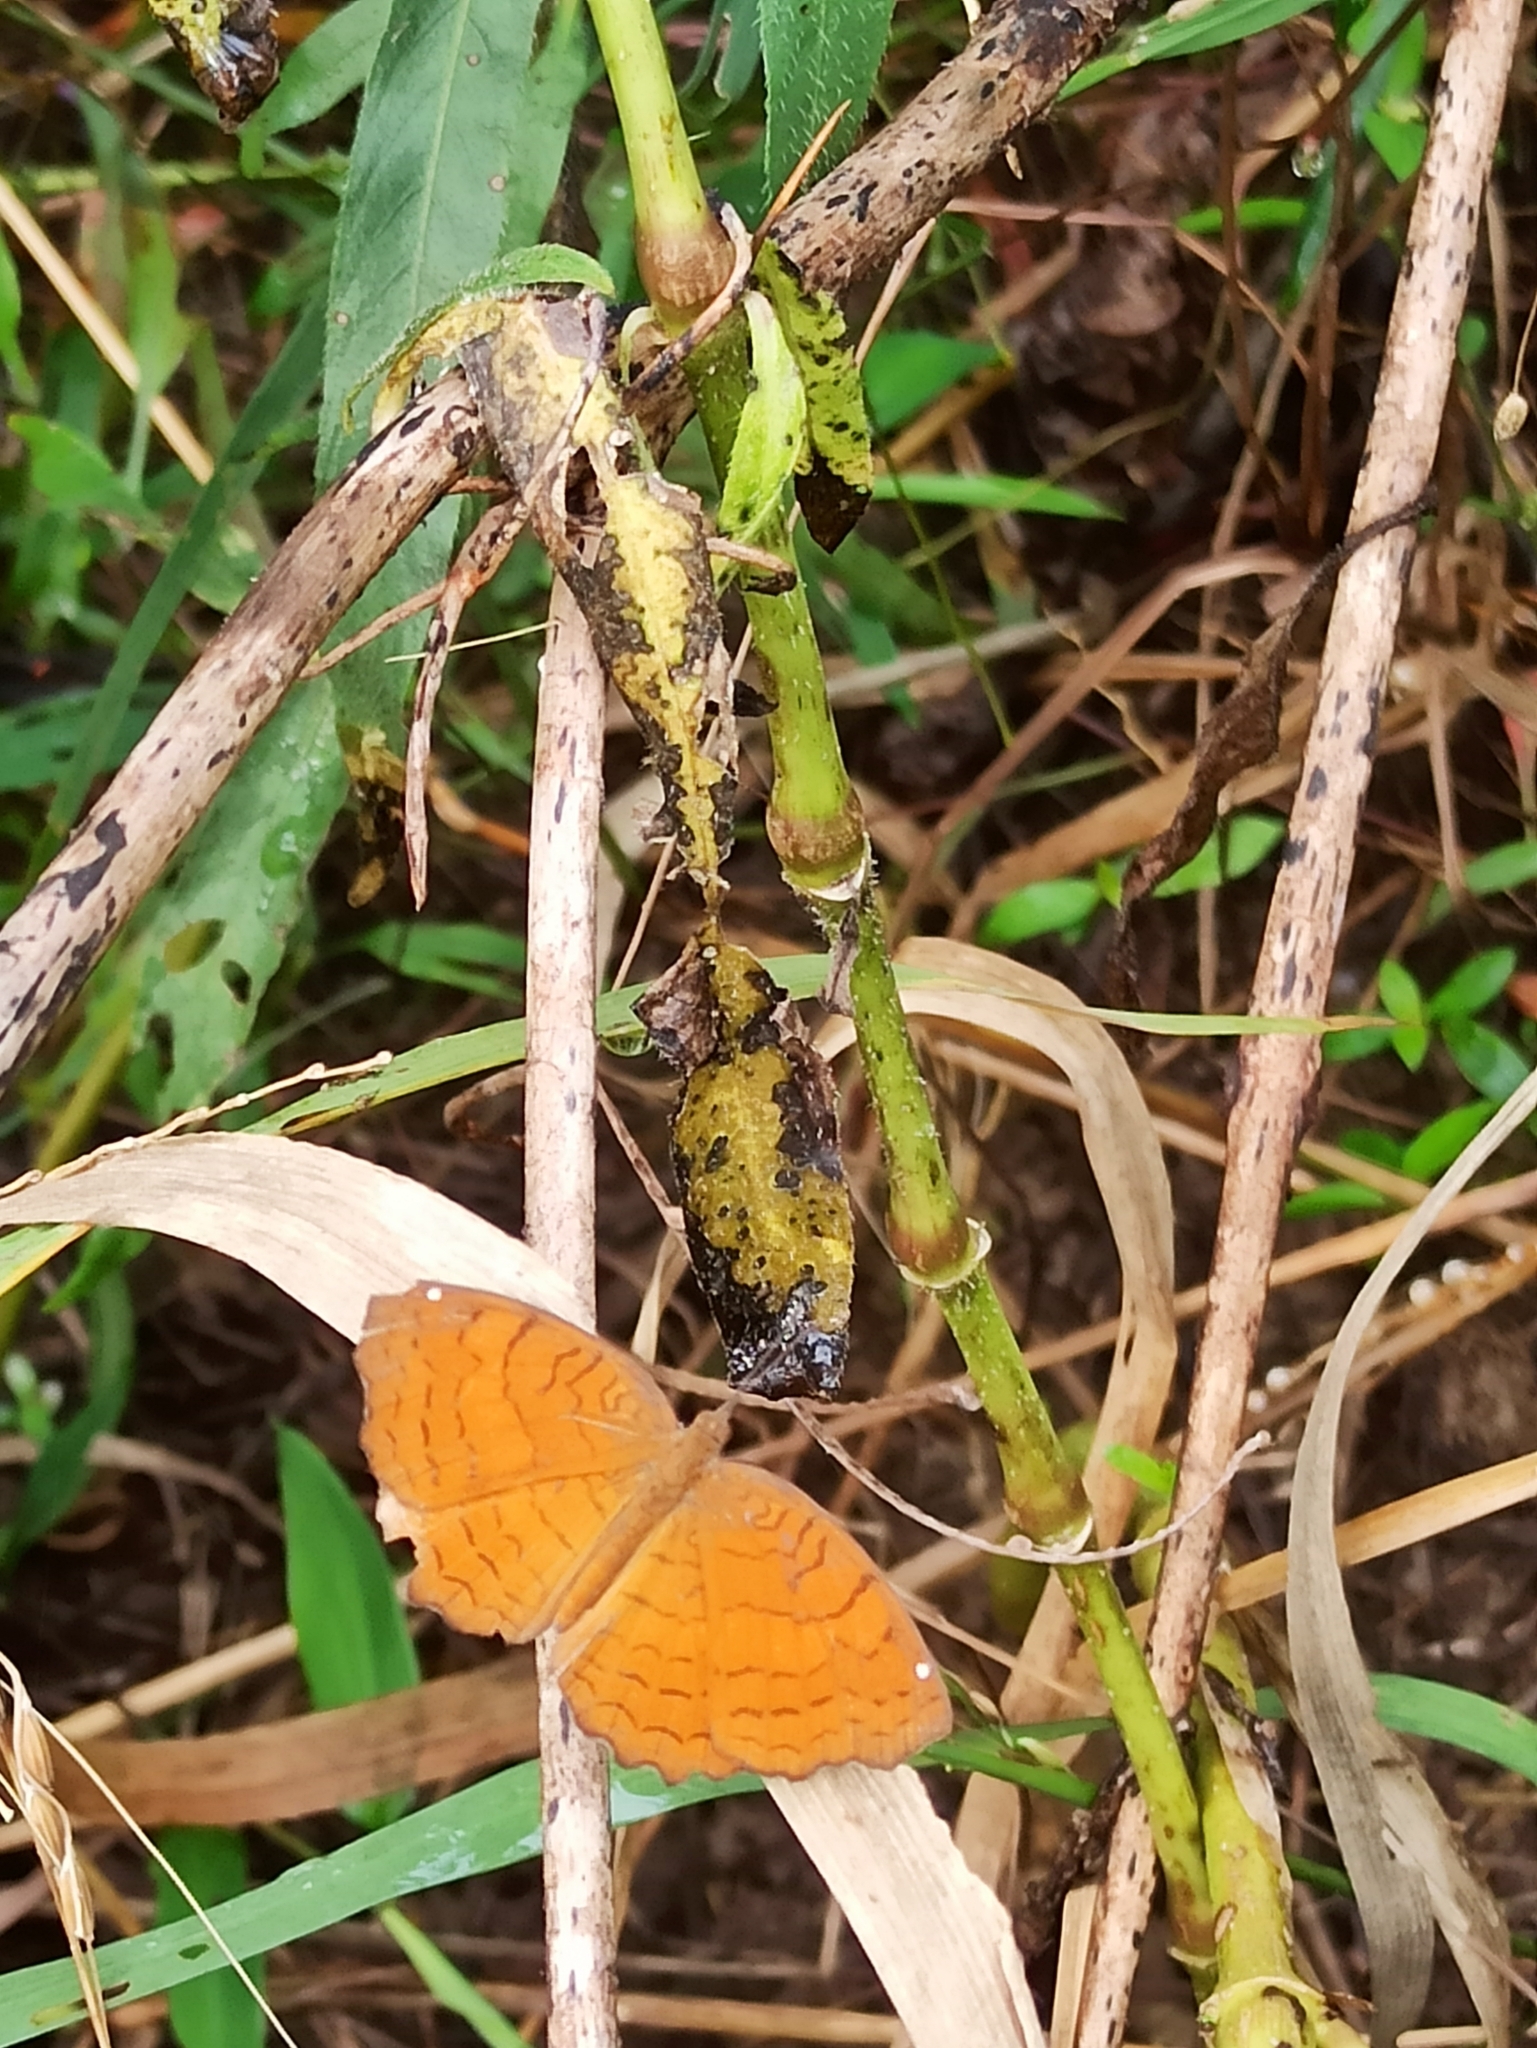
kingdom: Animalia
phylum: Arthropoda
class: Insecta
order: Lepidoptera
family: Nymphalidae
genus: Ariadne
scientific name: Ariadne ariadne
